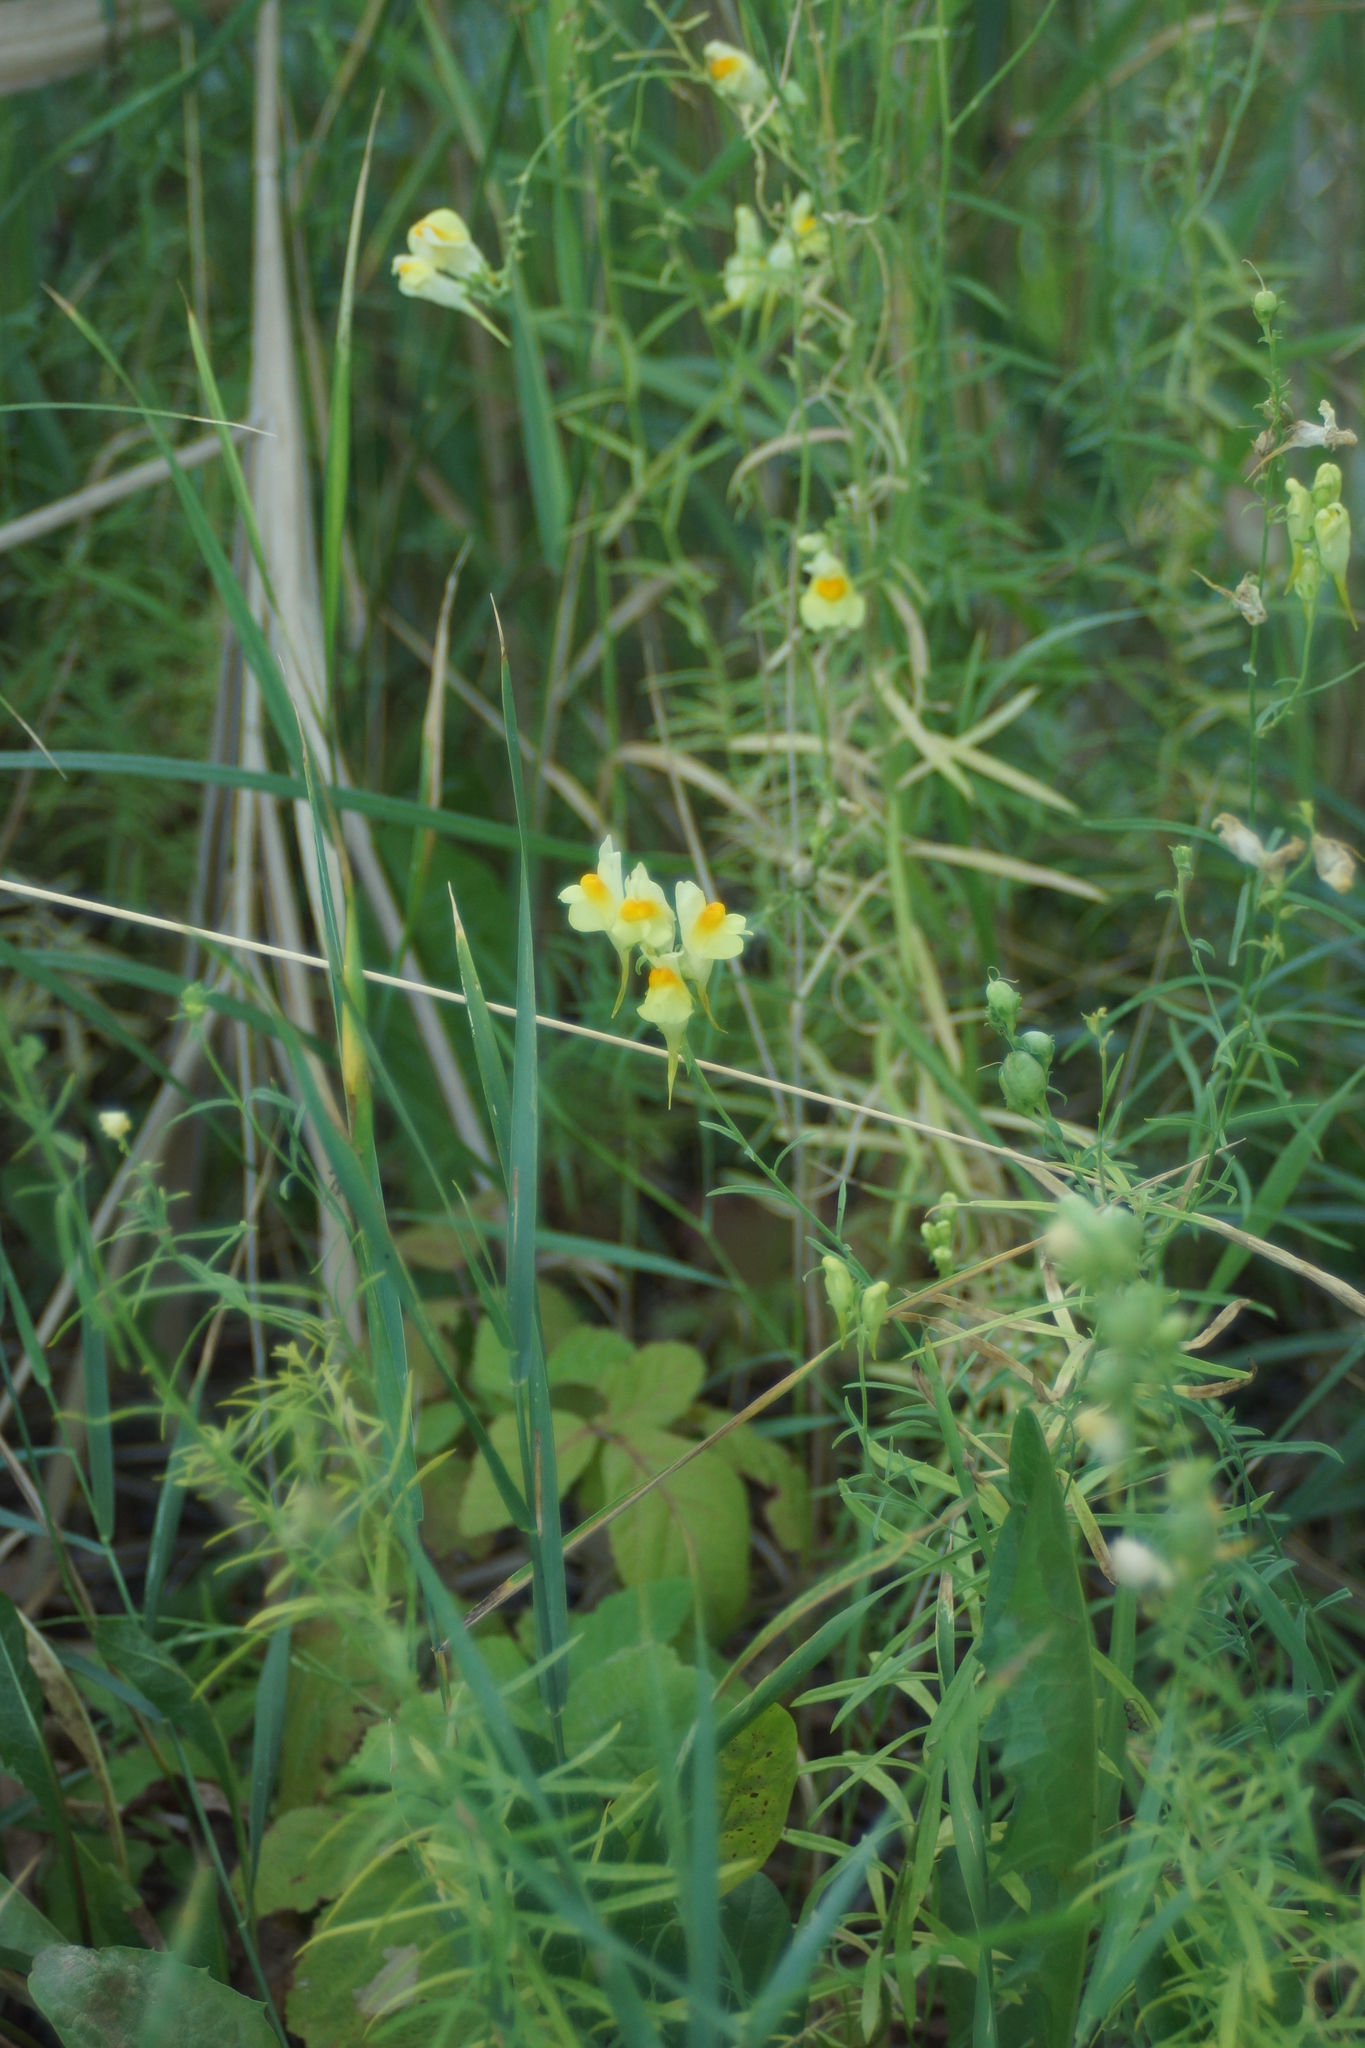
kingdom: Plantae
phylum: Tracheophyta
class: Magnoliopsida
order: Lamiales
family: Plantaginaceae
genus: Linaria
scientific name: Linaria vulgaris
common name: Butter and eggs
